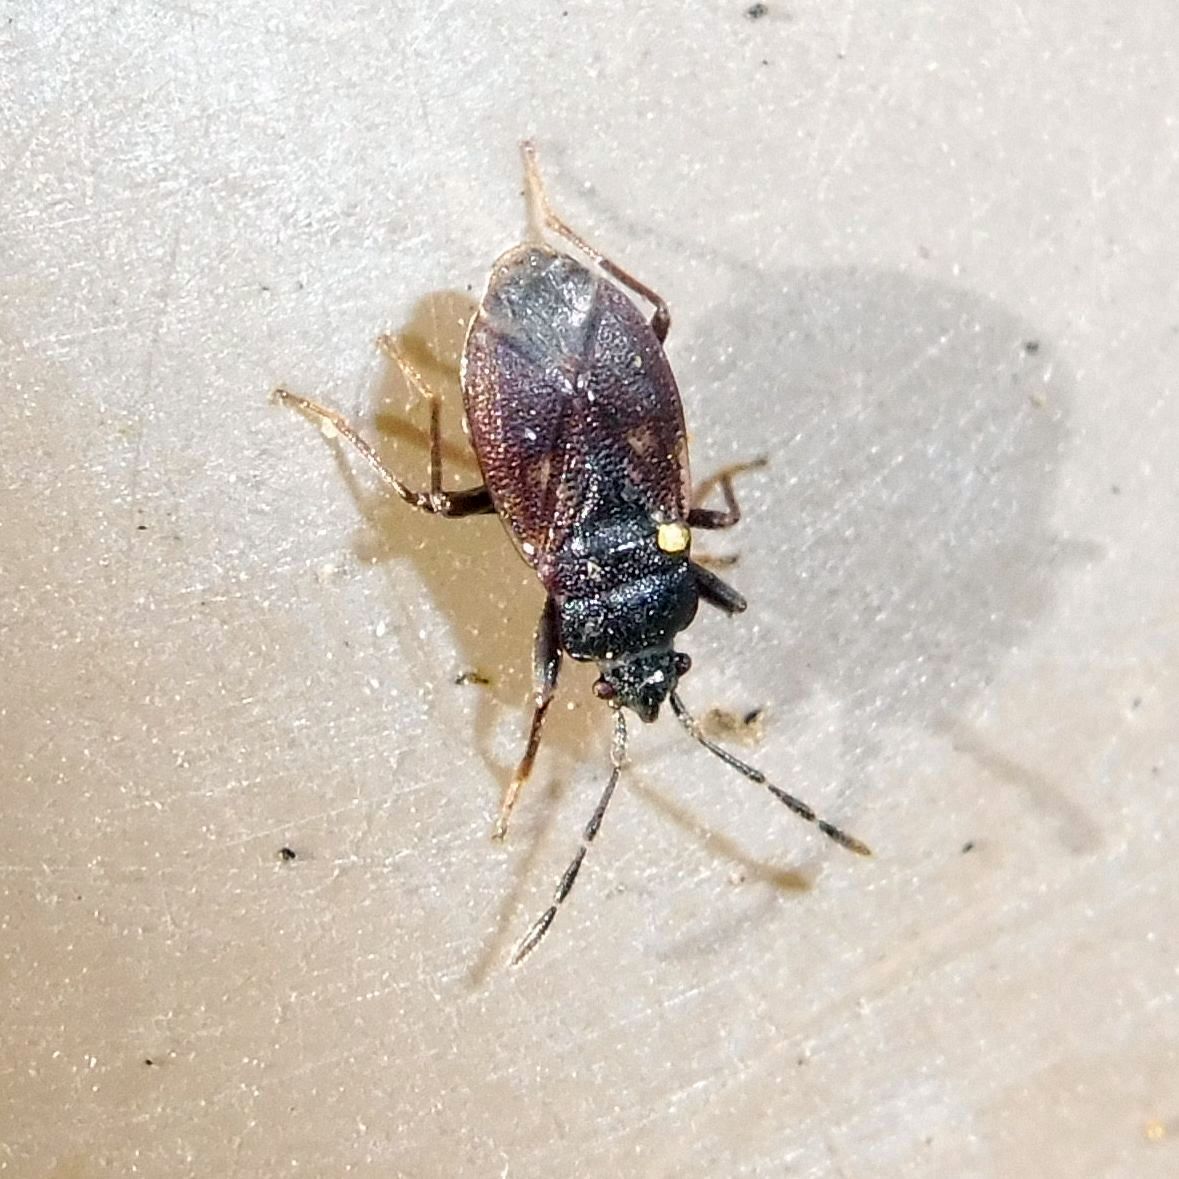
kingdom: Animalia
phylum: Arthropoda
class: Insecta
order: Hemiptera
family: Rhyparochromidae
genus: Drymus
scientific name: Drymus brunneus
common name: Seed bug
